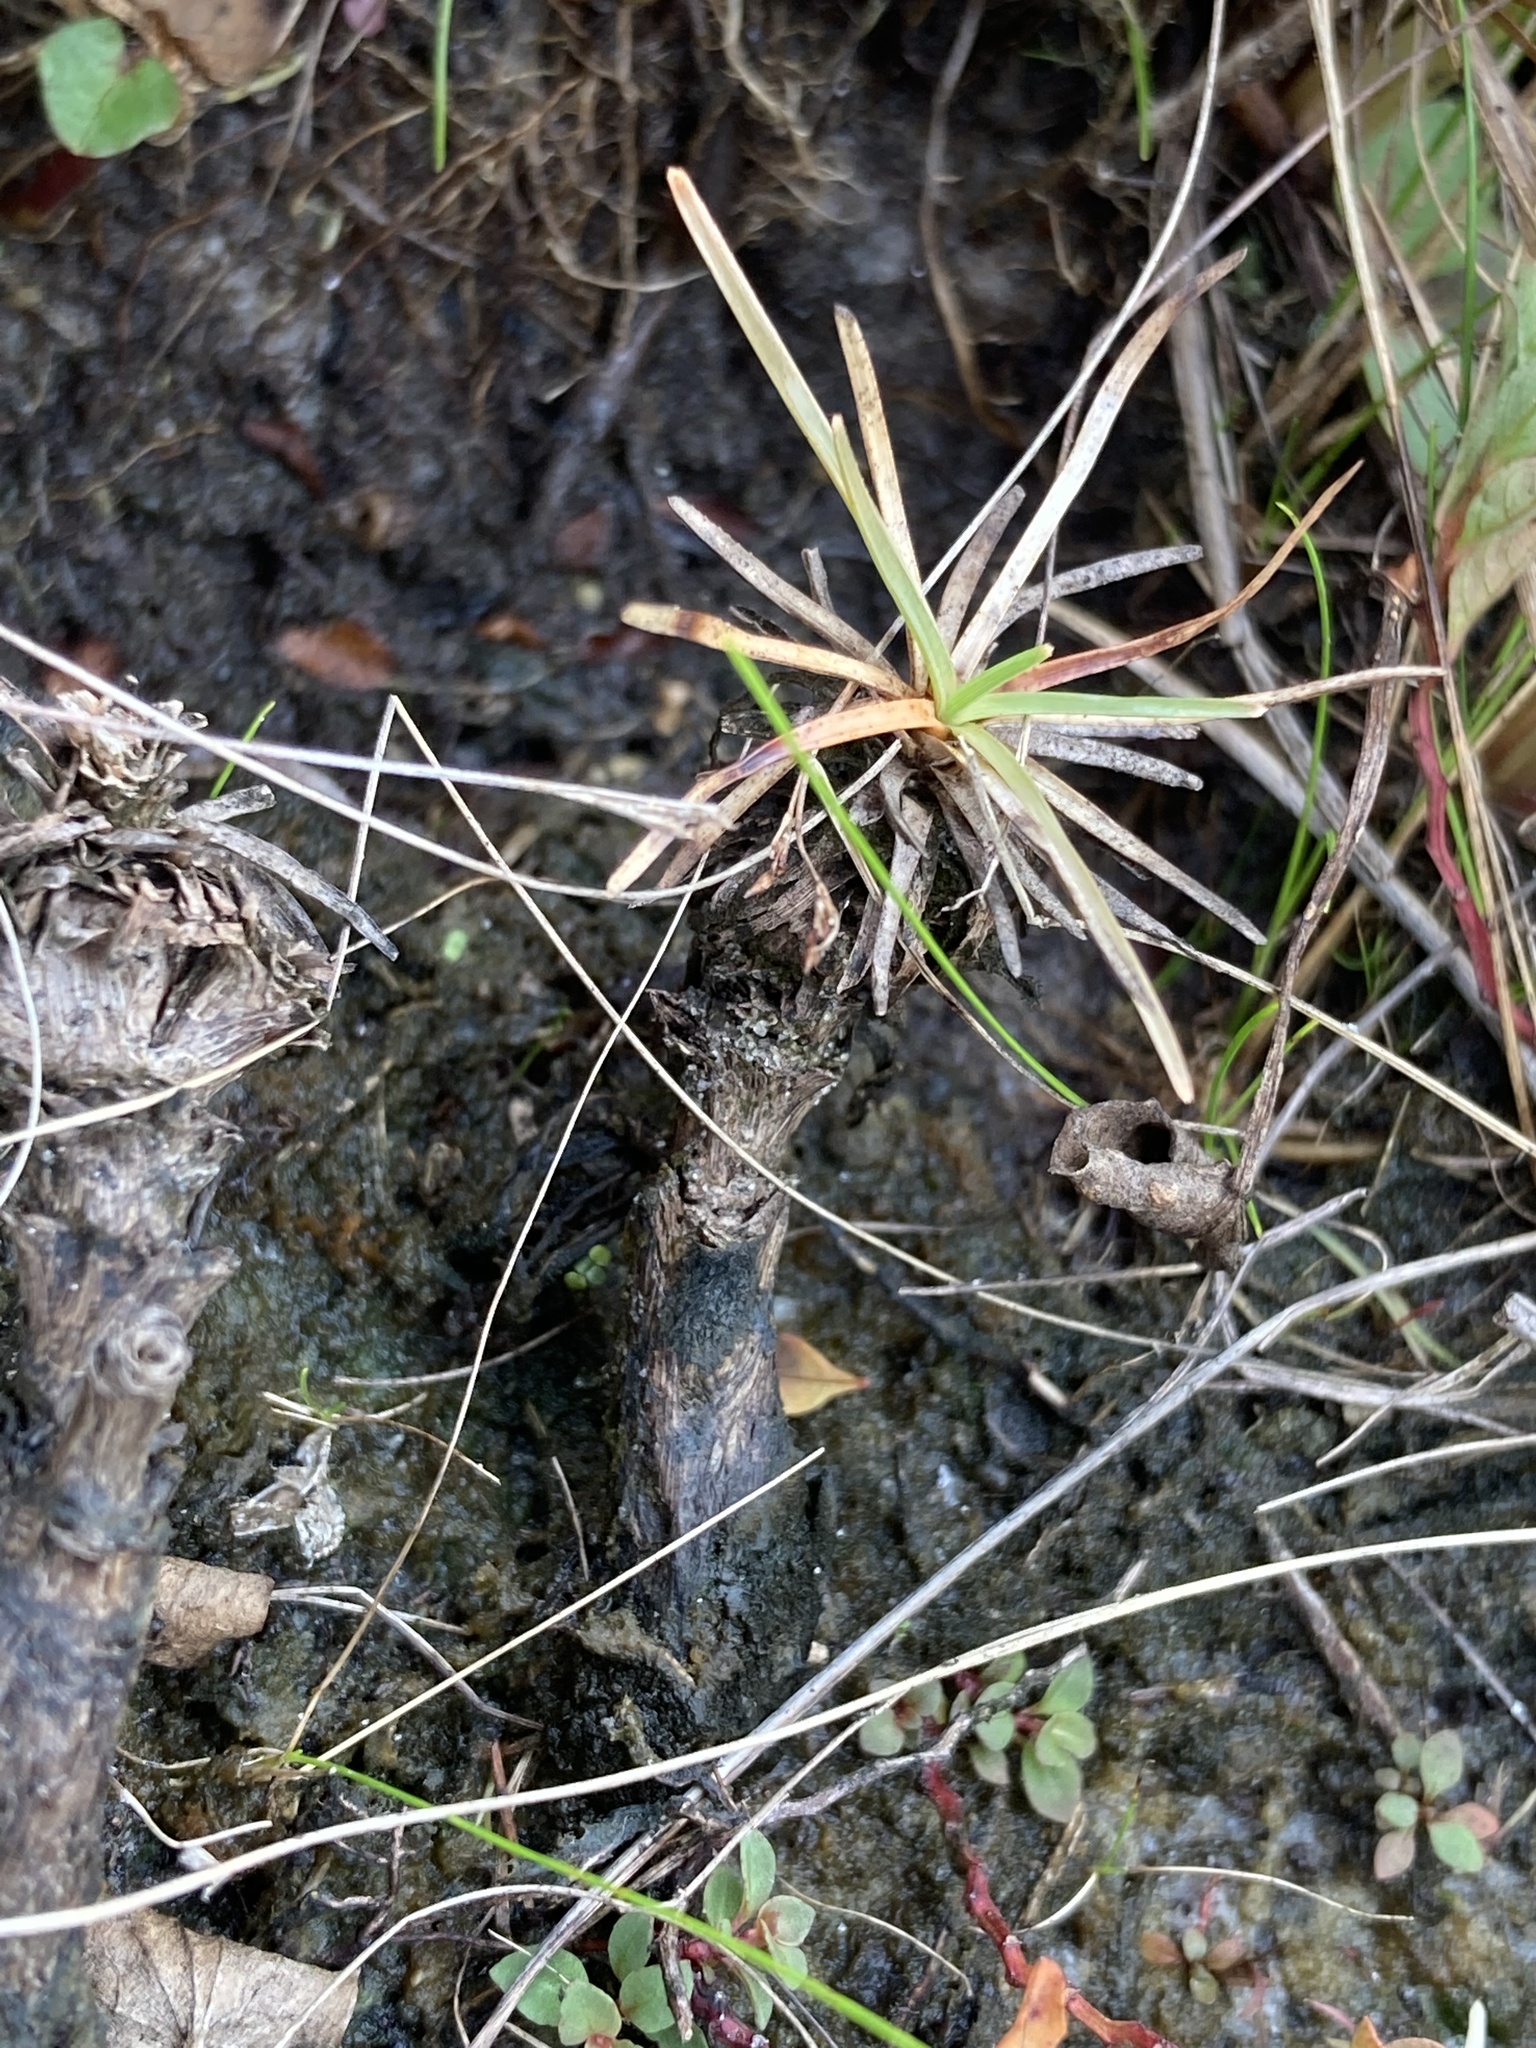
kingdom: Plantae
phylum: Tracheophyta
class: Liliopsida
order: Poales
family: Cyperaceae
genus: Fimbristylis
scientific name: Fimbristylis cymosa
